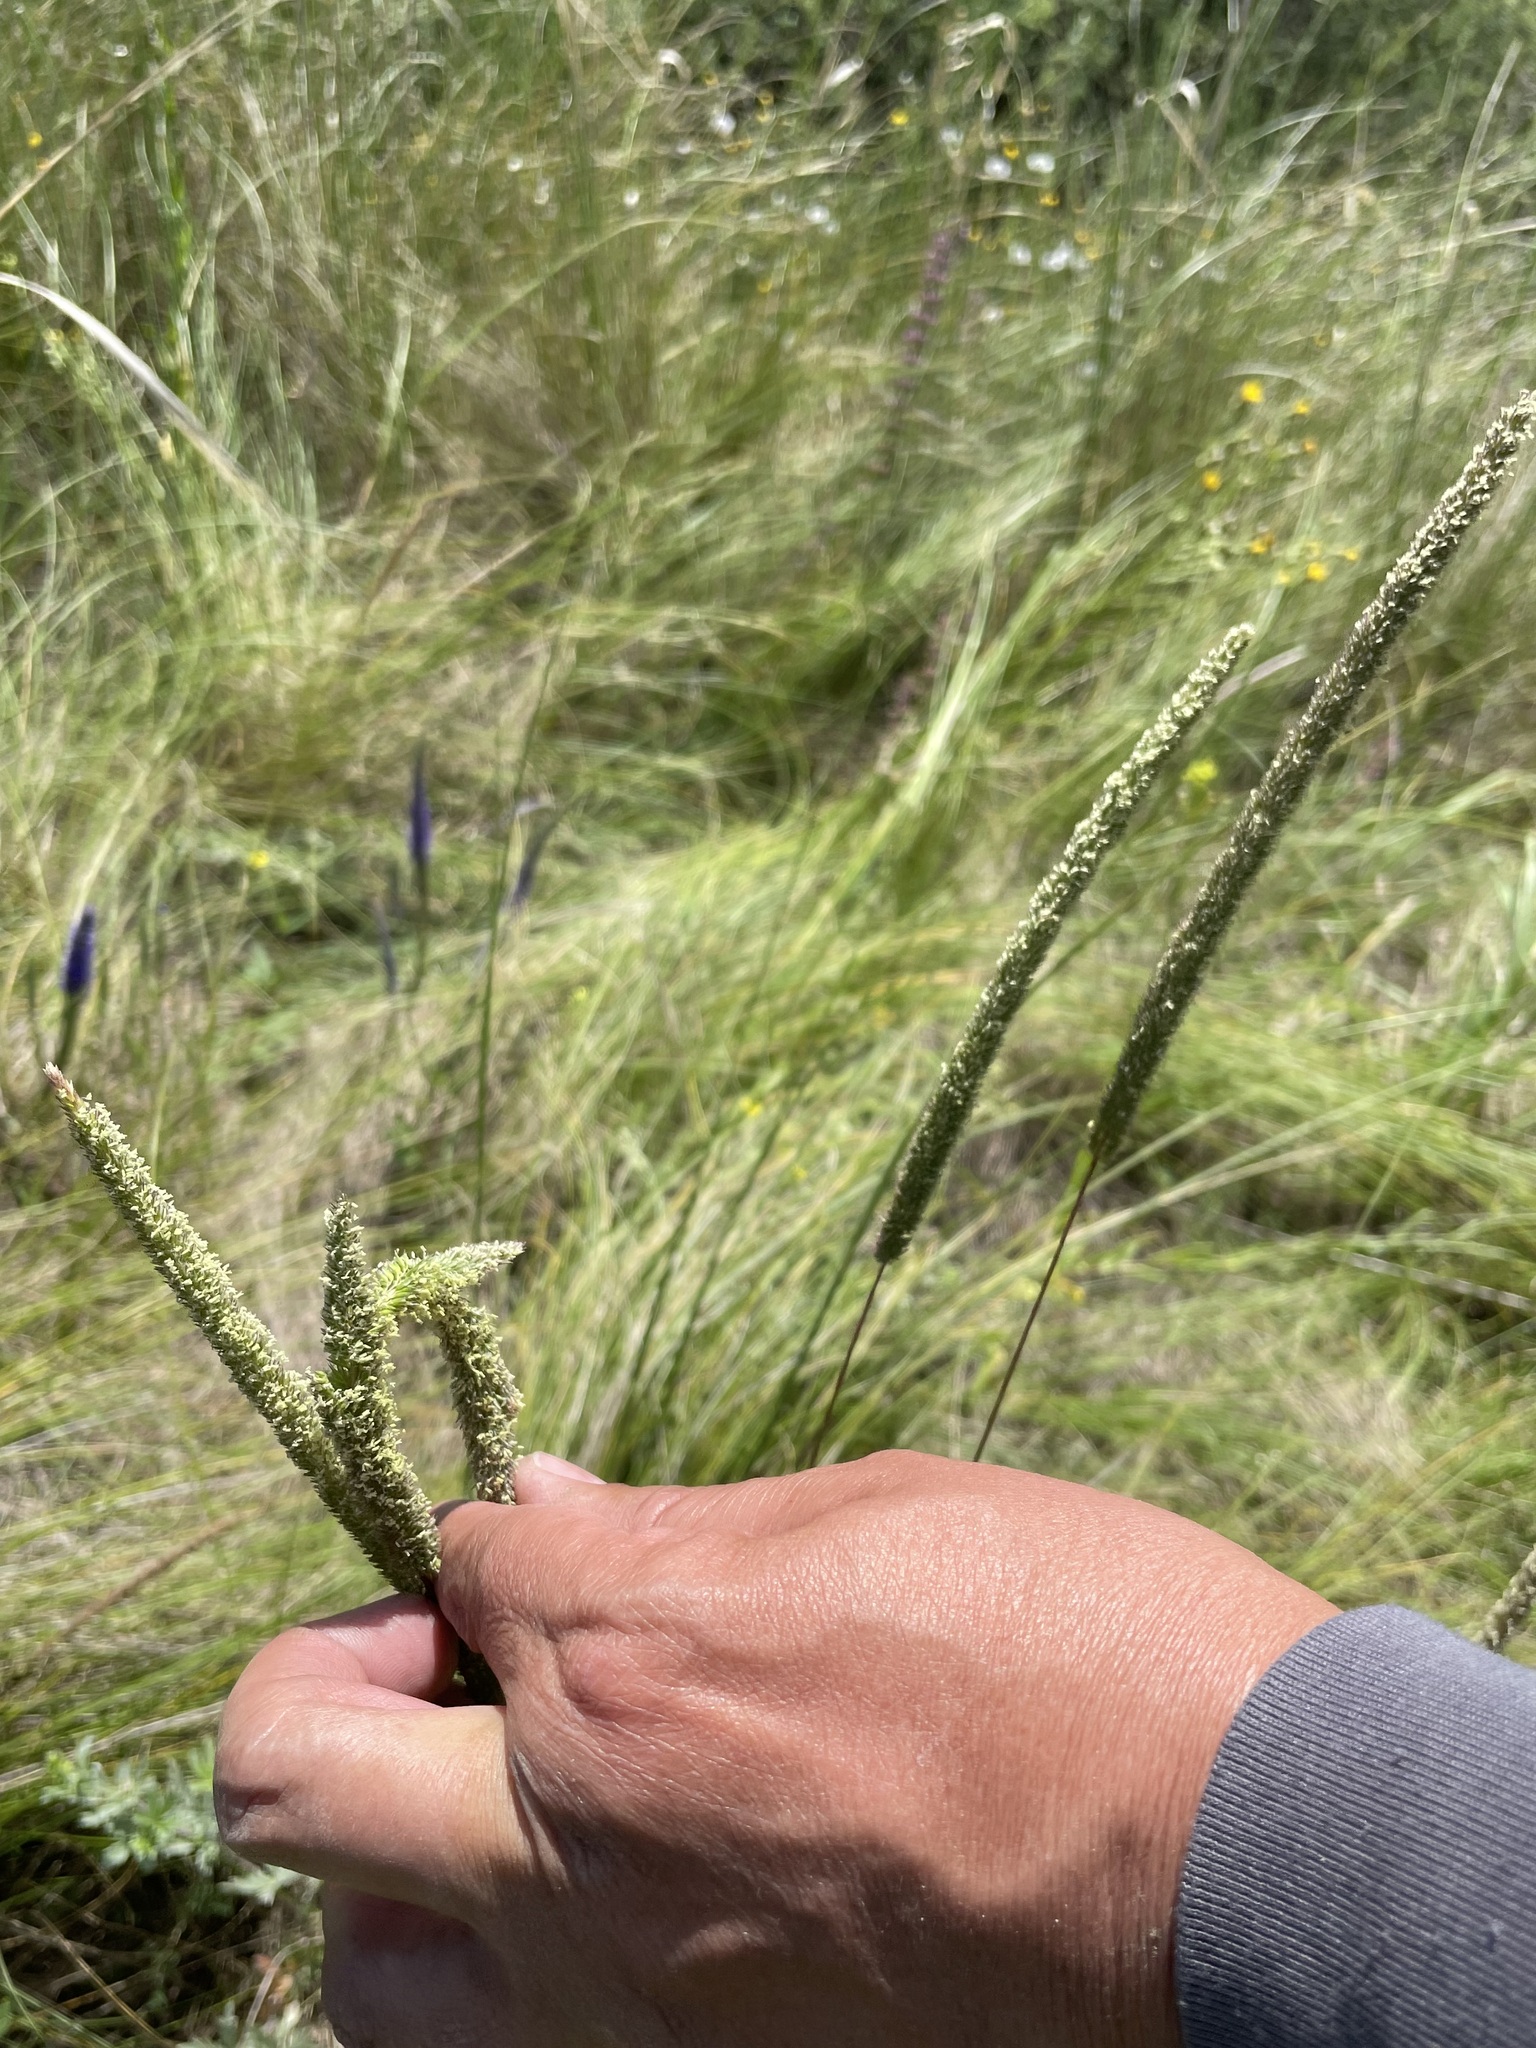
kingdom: Plantae
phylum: Tracheophyta
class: Liliopsida
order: Poales
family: Poaceae
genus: Phleum
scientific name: Phleum phleoides
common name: Purple-stem cat's-tail
